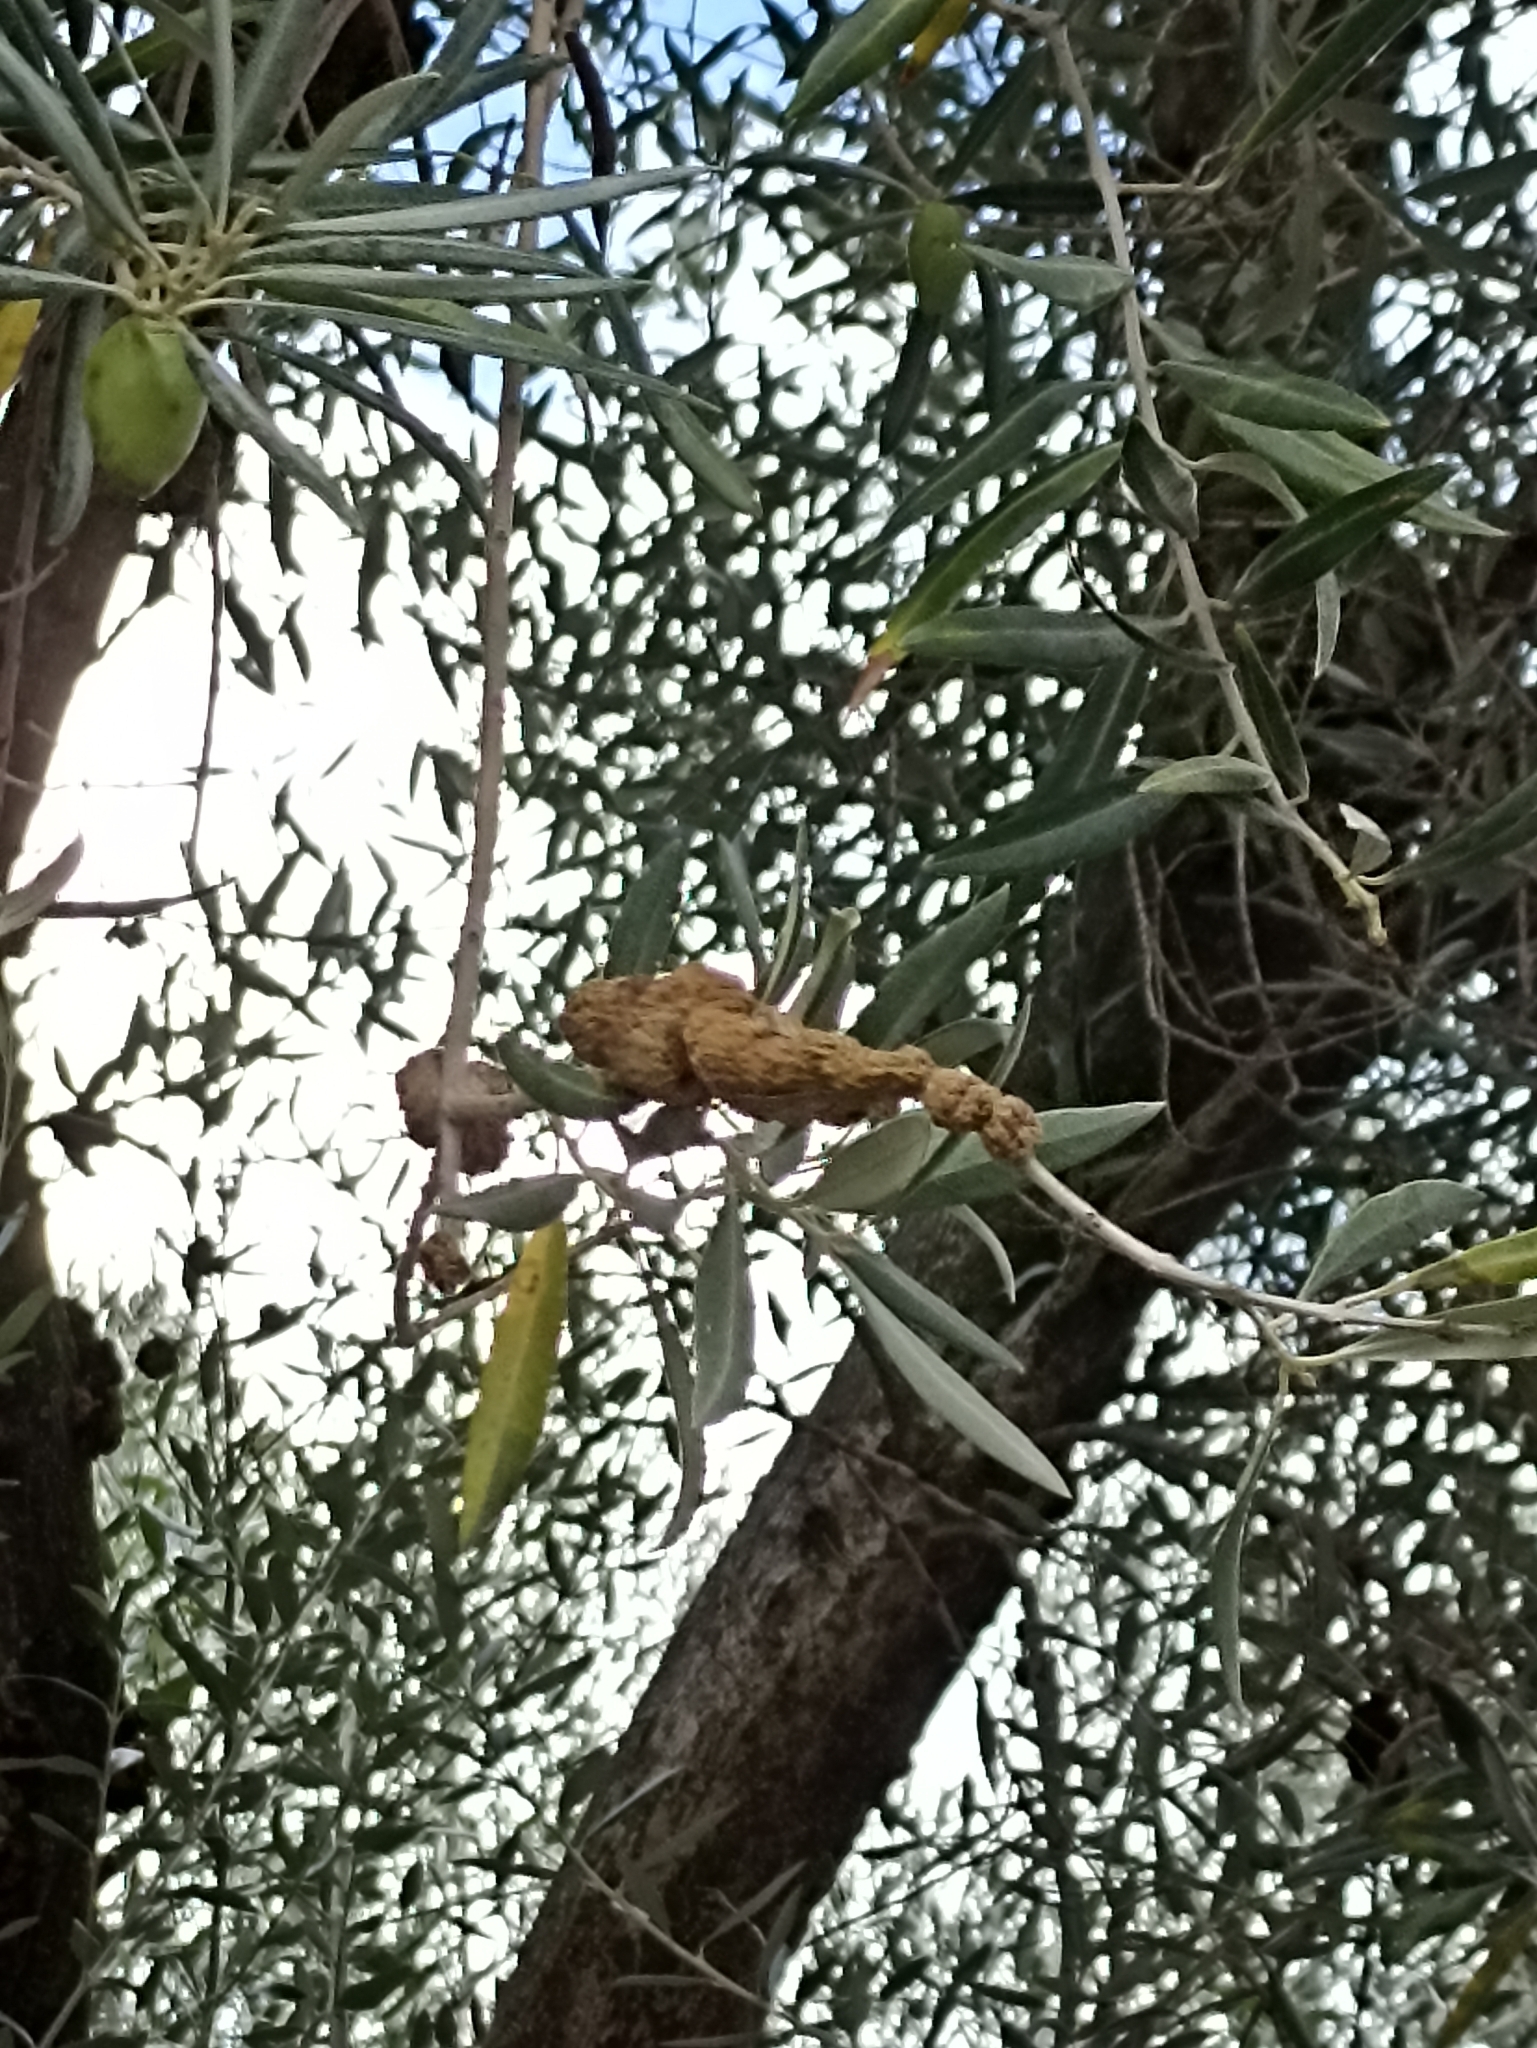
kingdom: Bacteria
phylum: Proteobacteria
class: Gammaproteobacteria
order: Pseudomonadales
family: Pseudomonadaceae
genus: Pseudomonas
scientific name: Pseudomonas
